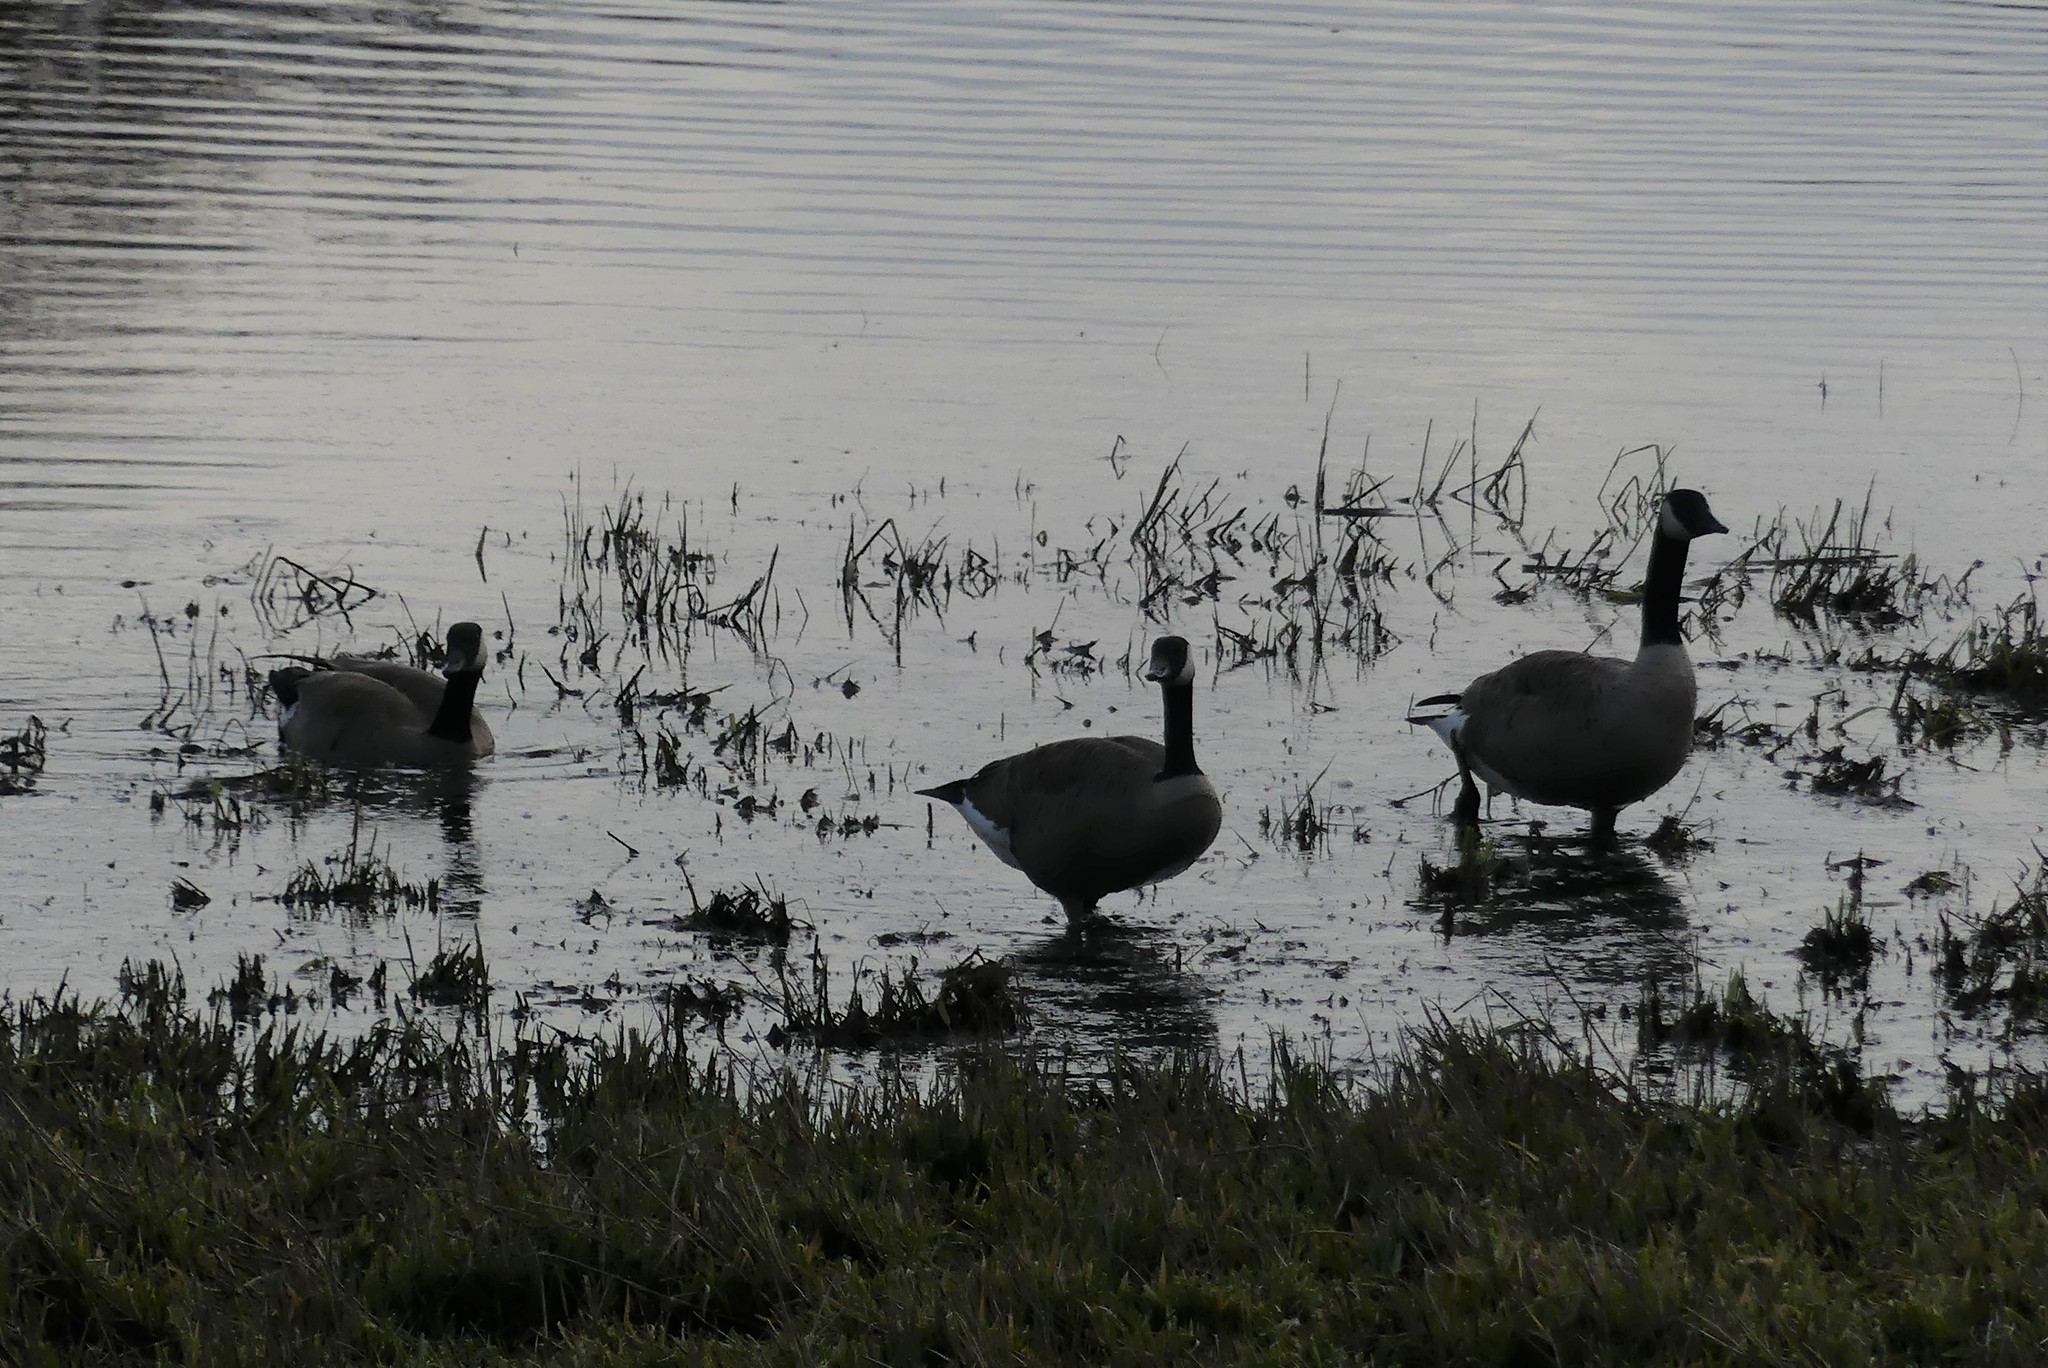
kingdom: Animalia
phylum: Chordata
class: Aves
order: Anseriformes
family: Anatidae
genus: Branta
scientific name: Branta canadensis
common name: Canada goose
